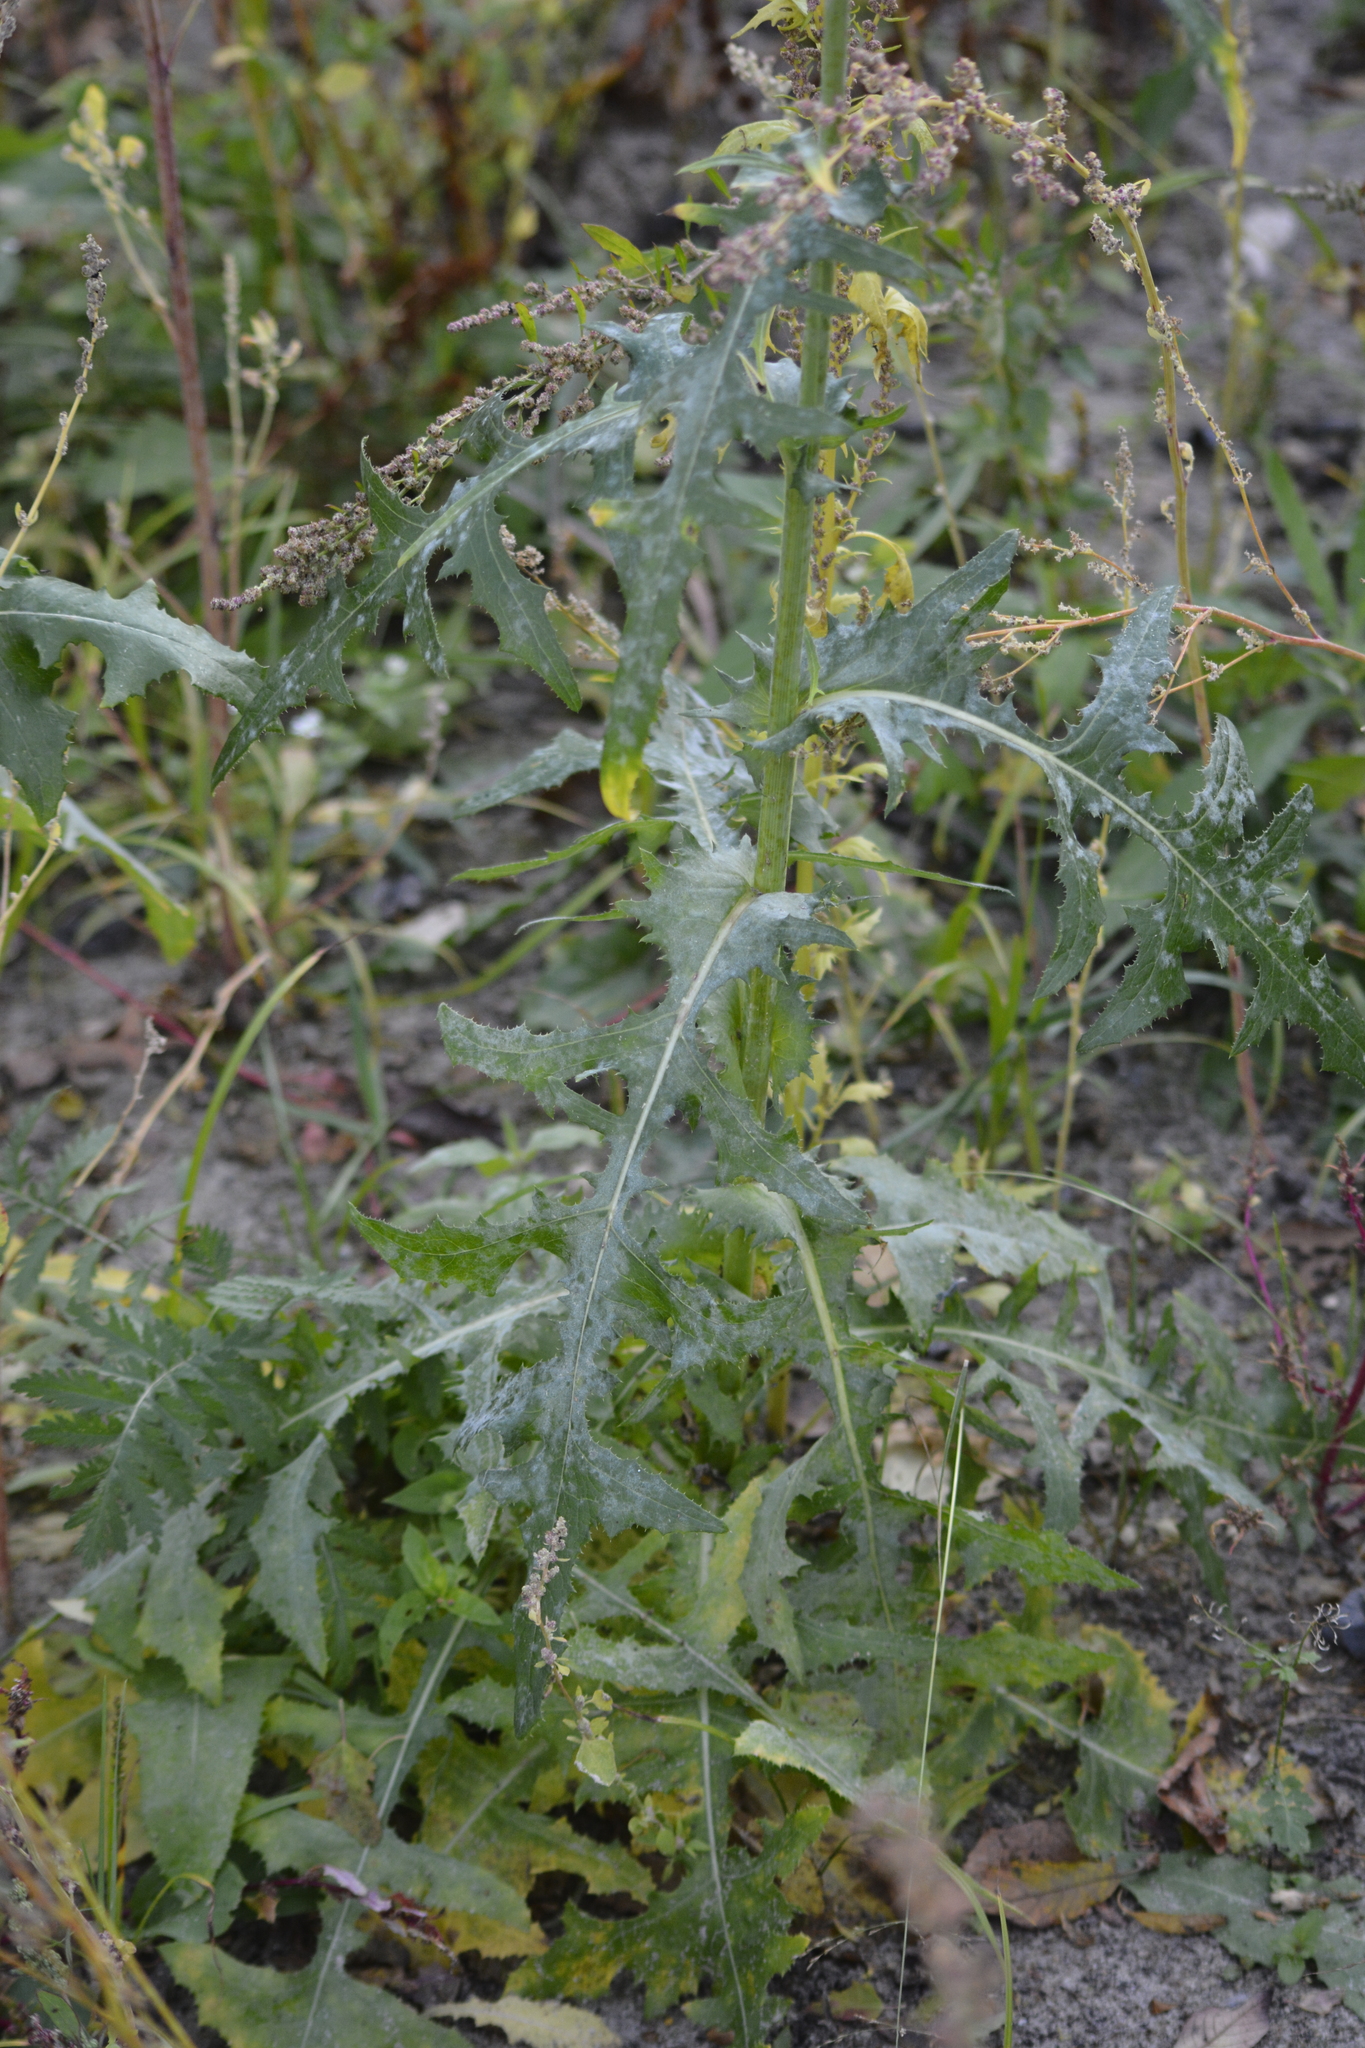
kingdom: Plantae
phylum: Tracheophyta
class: Magnoliopsida
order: Asterales
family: Asteraceae
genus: Sonchus
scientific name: Sonchus arvensis
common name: Perennial sow-thistle
